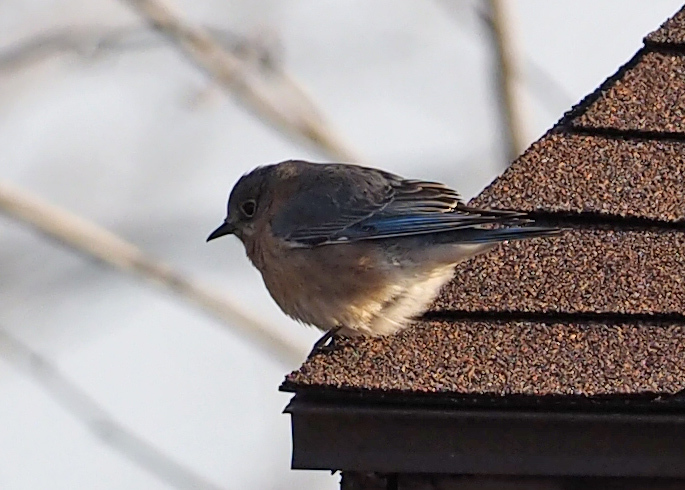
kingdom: Animalia
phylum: Chordata
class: Aves
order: Passeriformes
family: Turdidae
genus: Sialia
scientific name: Sialia sialis
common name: Eastern bluebird
